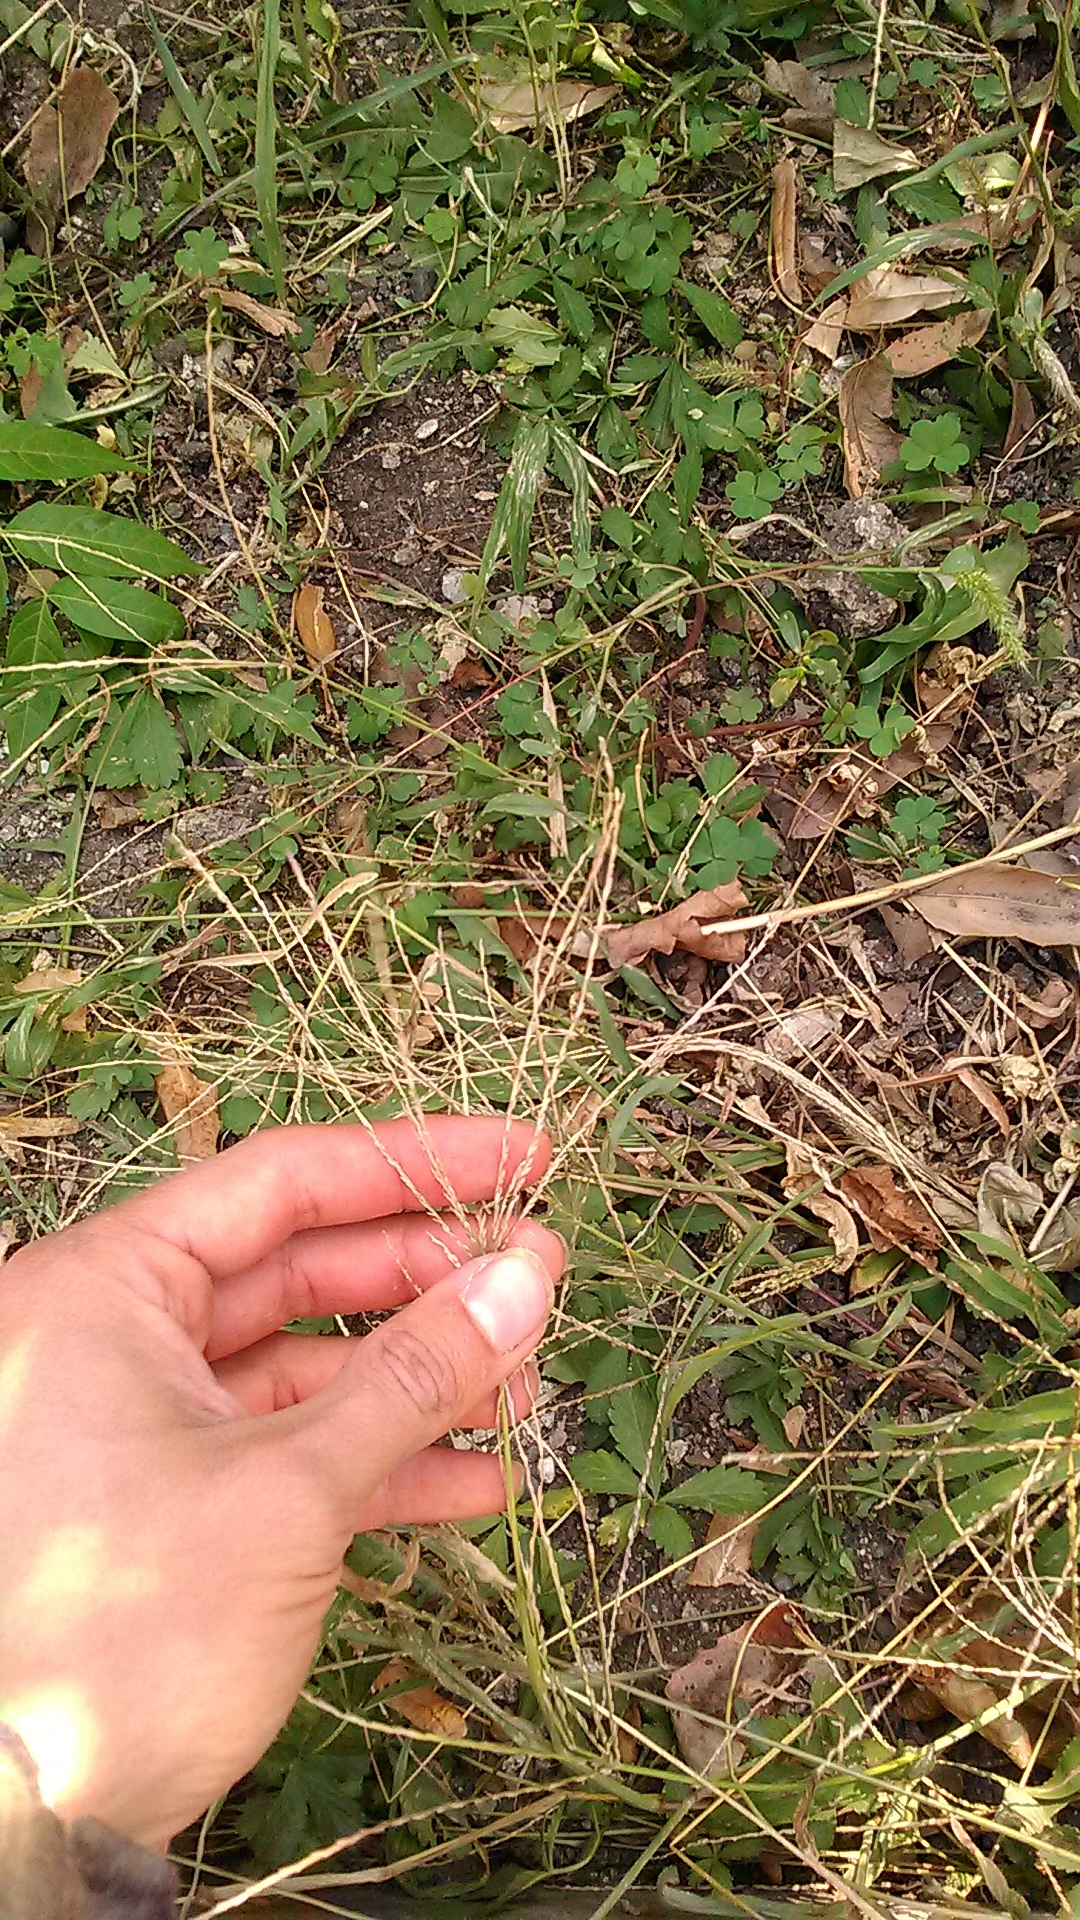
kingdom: Plantae
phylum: Tracheophyta
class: Liliopsida
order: Poales
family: Poaceae
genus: Digitaria
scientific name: Digitaria sanguinalis
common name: Hairy crabgrass
